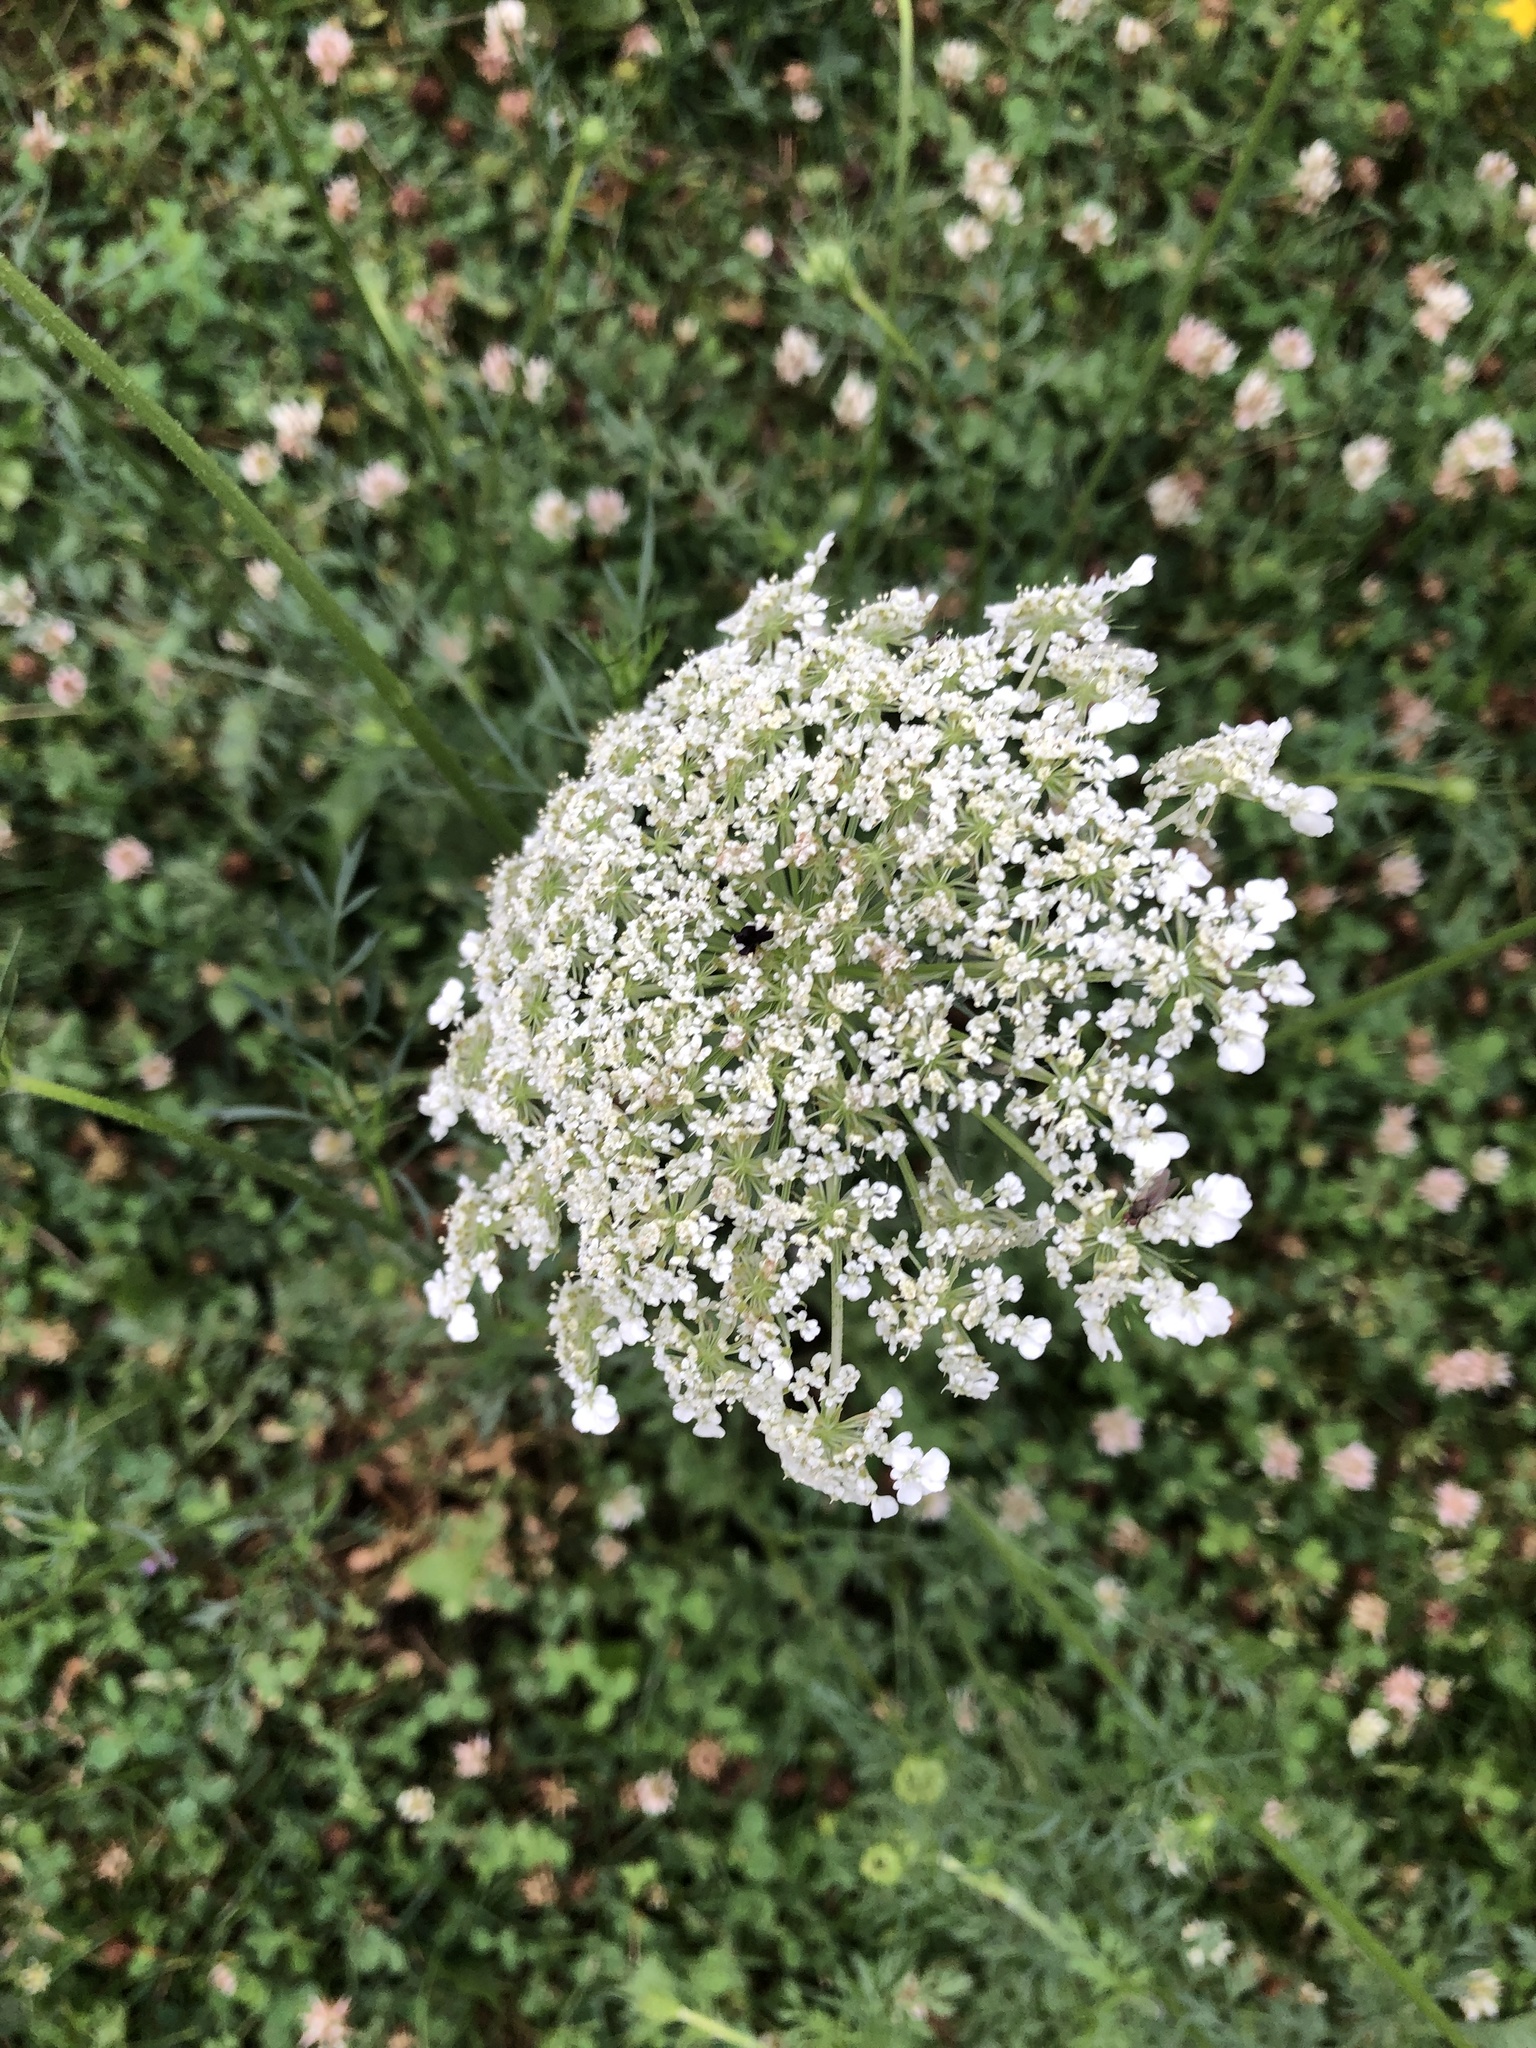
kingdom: Plantae
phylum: Tracheophyta
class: Magnoliopsida
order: Apiales
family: Apiaceae
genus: Daucus
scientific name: Daucus carota
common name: Wild carrot
